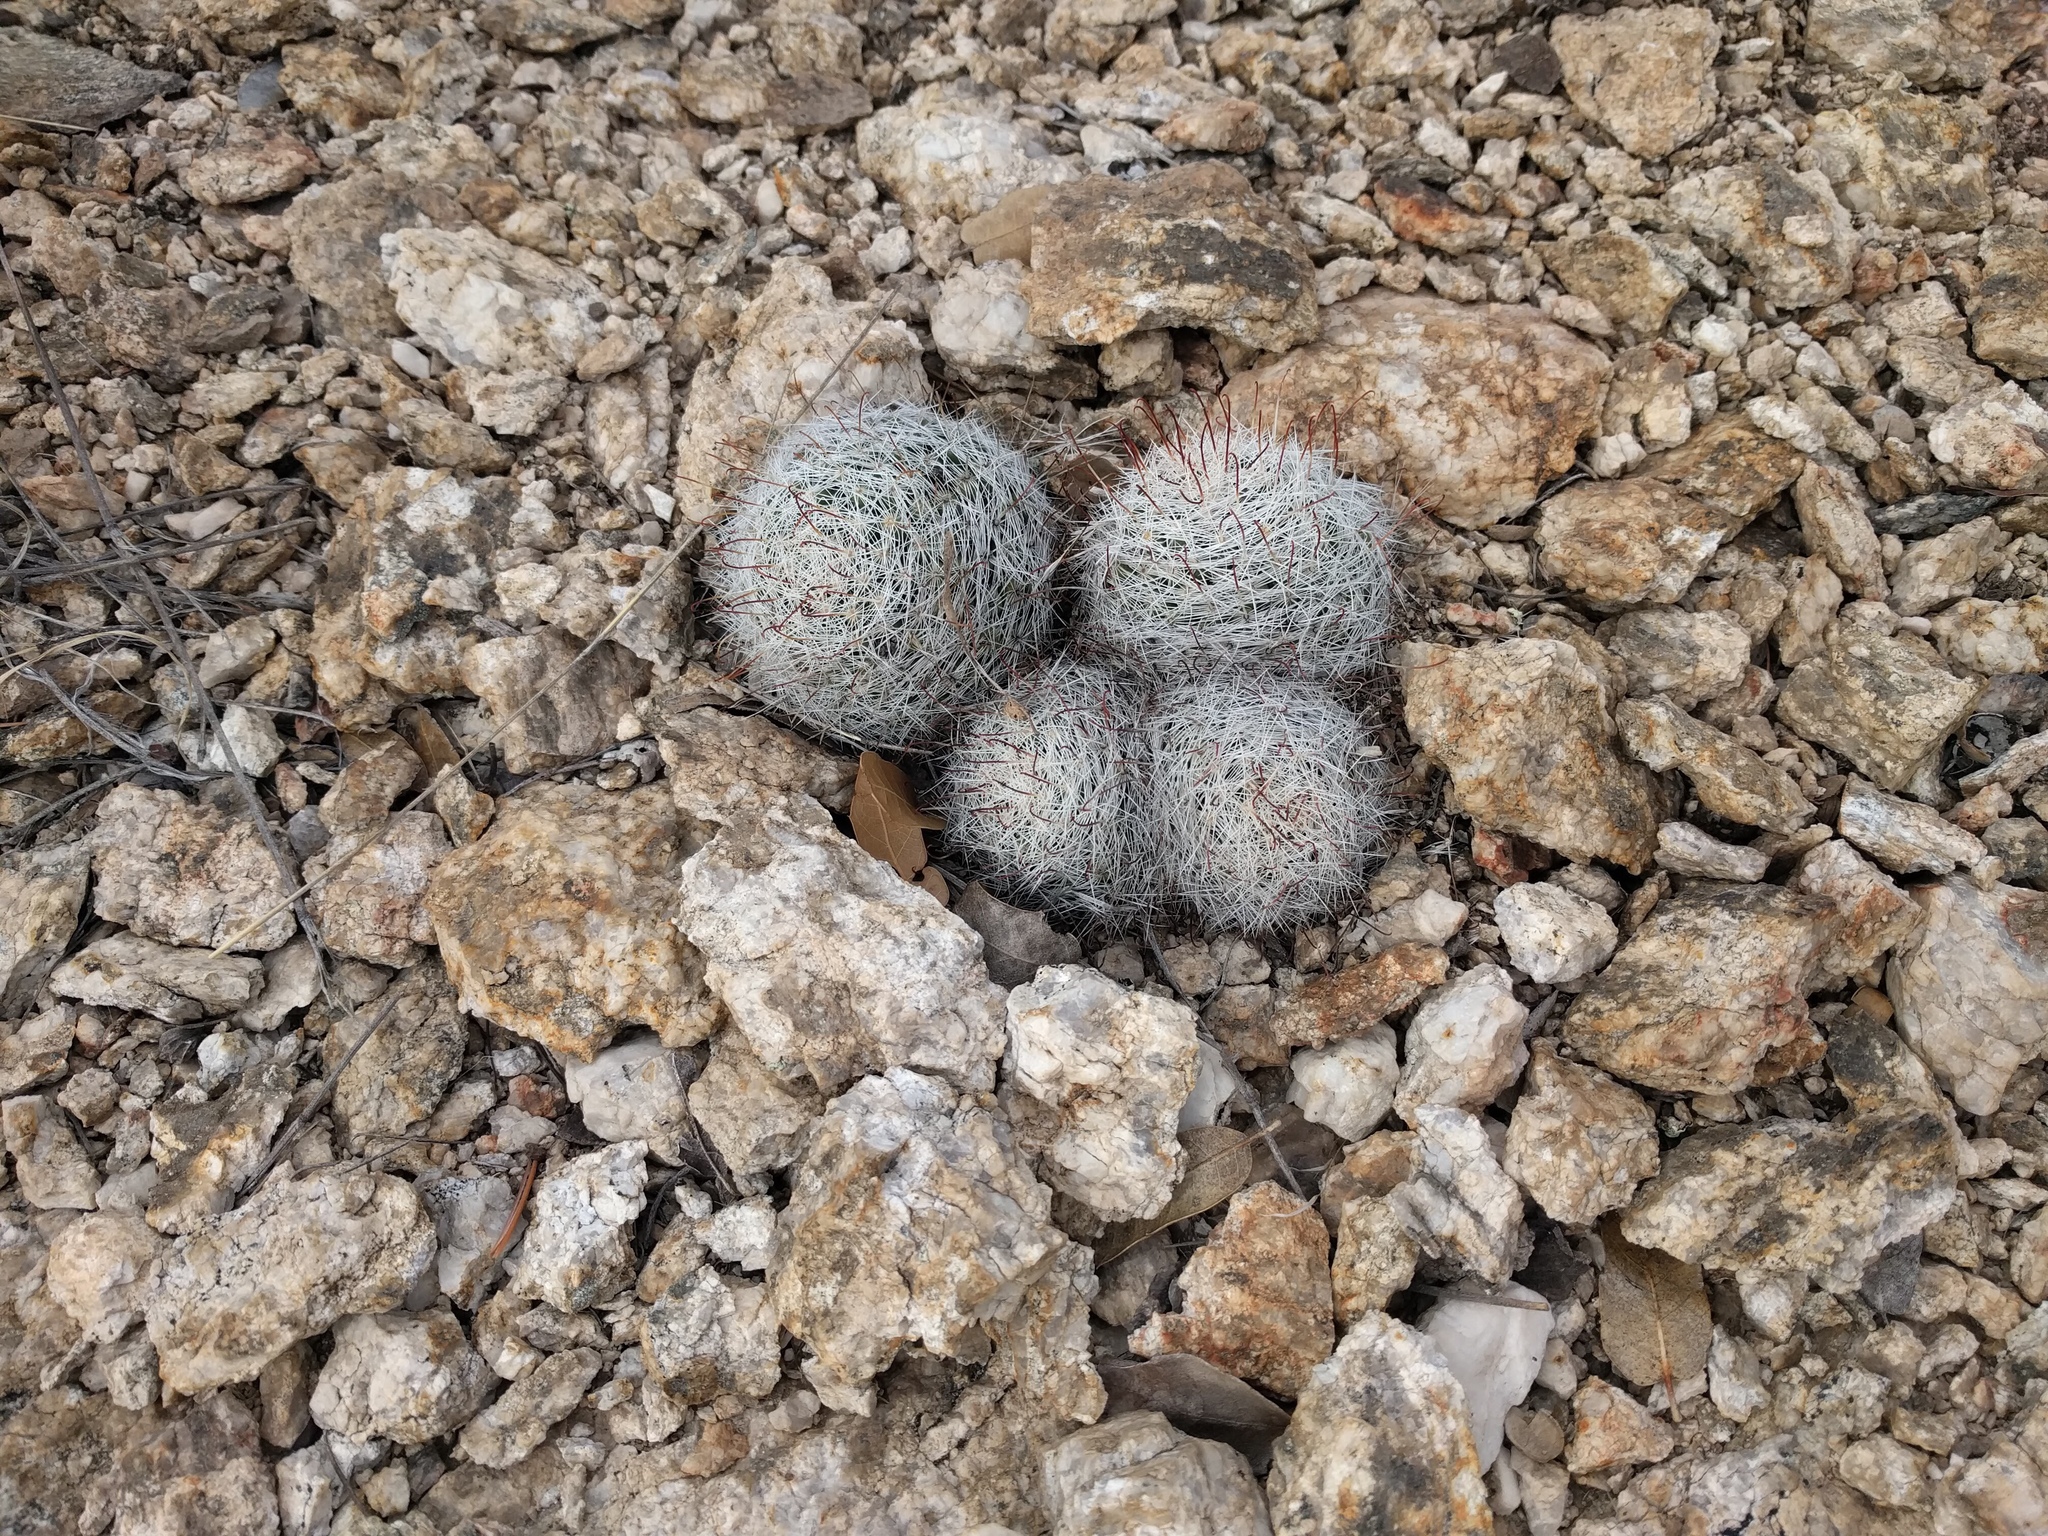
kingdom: Plantae
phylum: Tracheophyta
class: Magnoliopsida
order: Caryophyllales
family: Cactaceae
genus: Cochemiea
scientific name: Cochemiea grahamii
